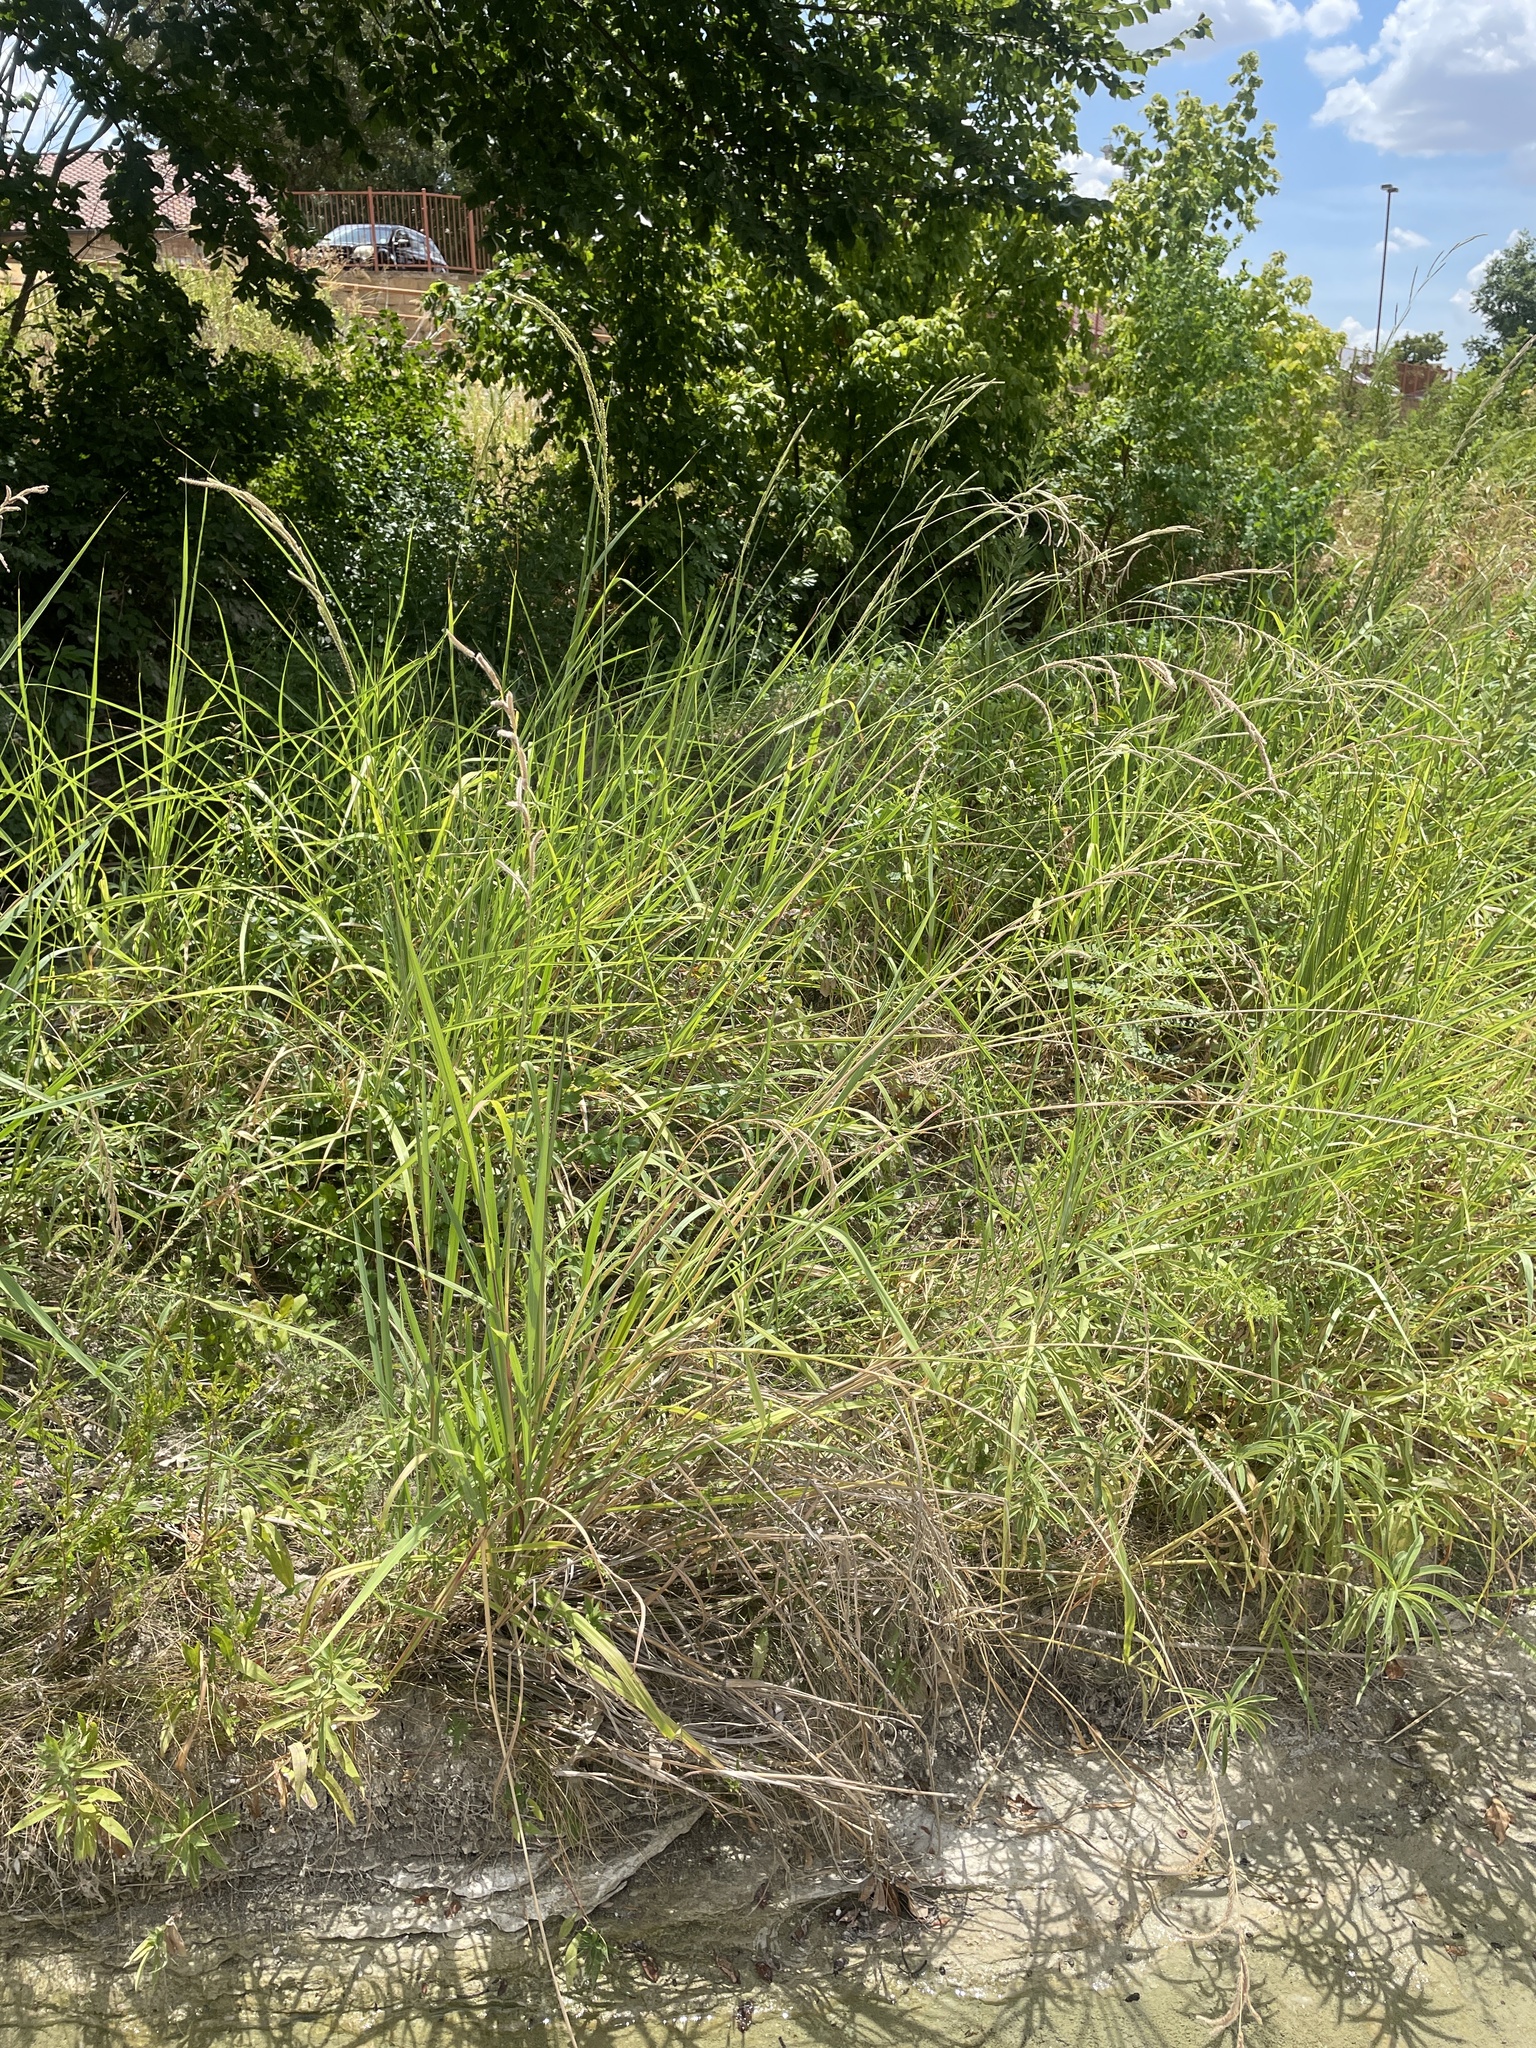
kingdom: Plantae
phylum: Tracheophyta
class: Liliopsida
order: Poales
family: Poaceae
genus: Paspalum
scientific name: Paspalum urvillei
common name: Vasey's grass
